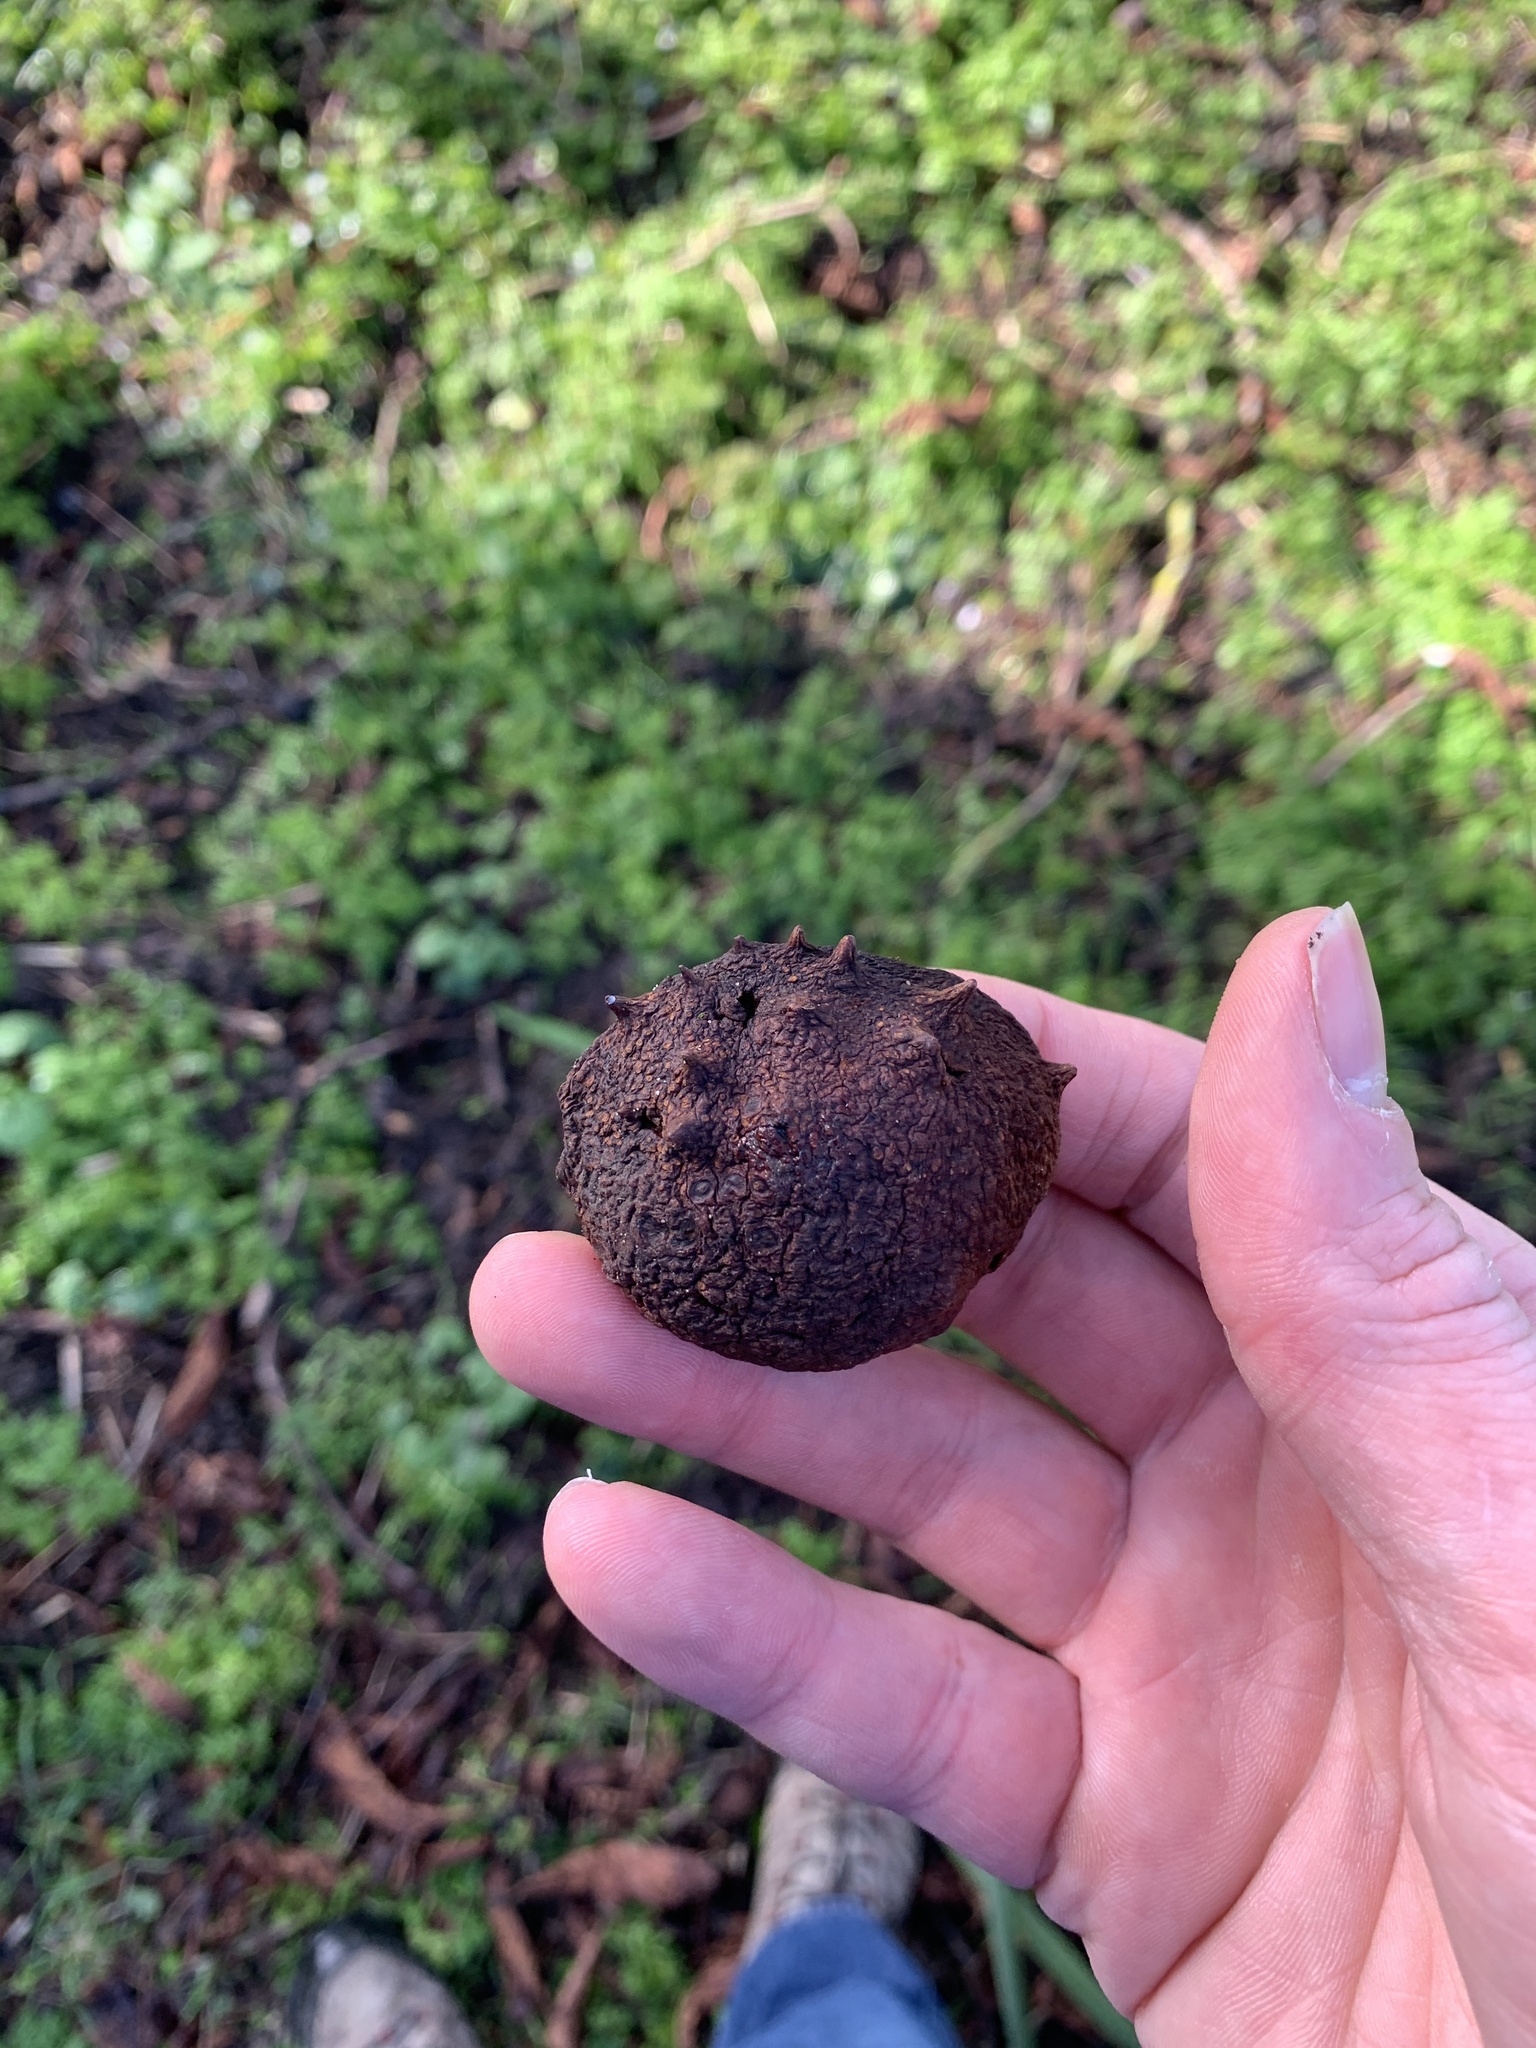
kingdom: Plantae
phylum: Tracheophyta
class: Magnoliopsida
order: Sapindales
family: Sapindaceae
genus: Aesculus
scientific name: Aesculus hippocastanum
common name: Horse-chestnut
